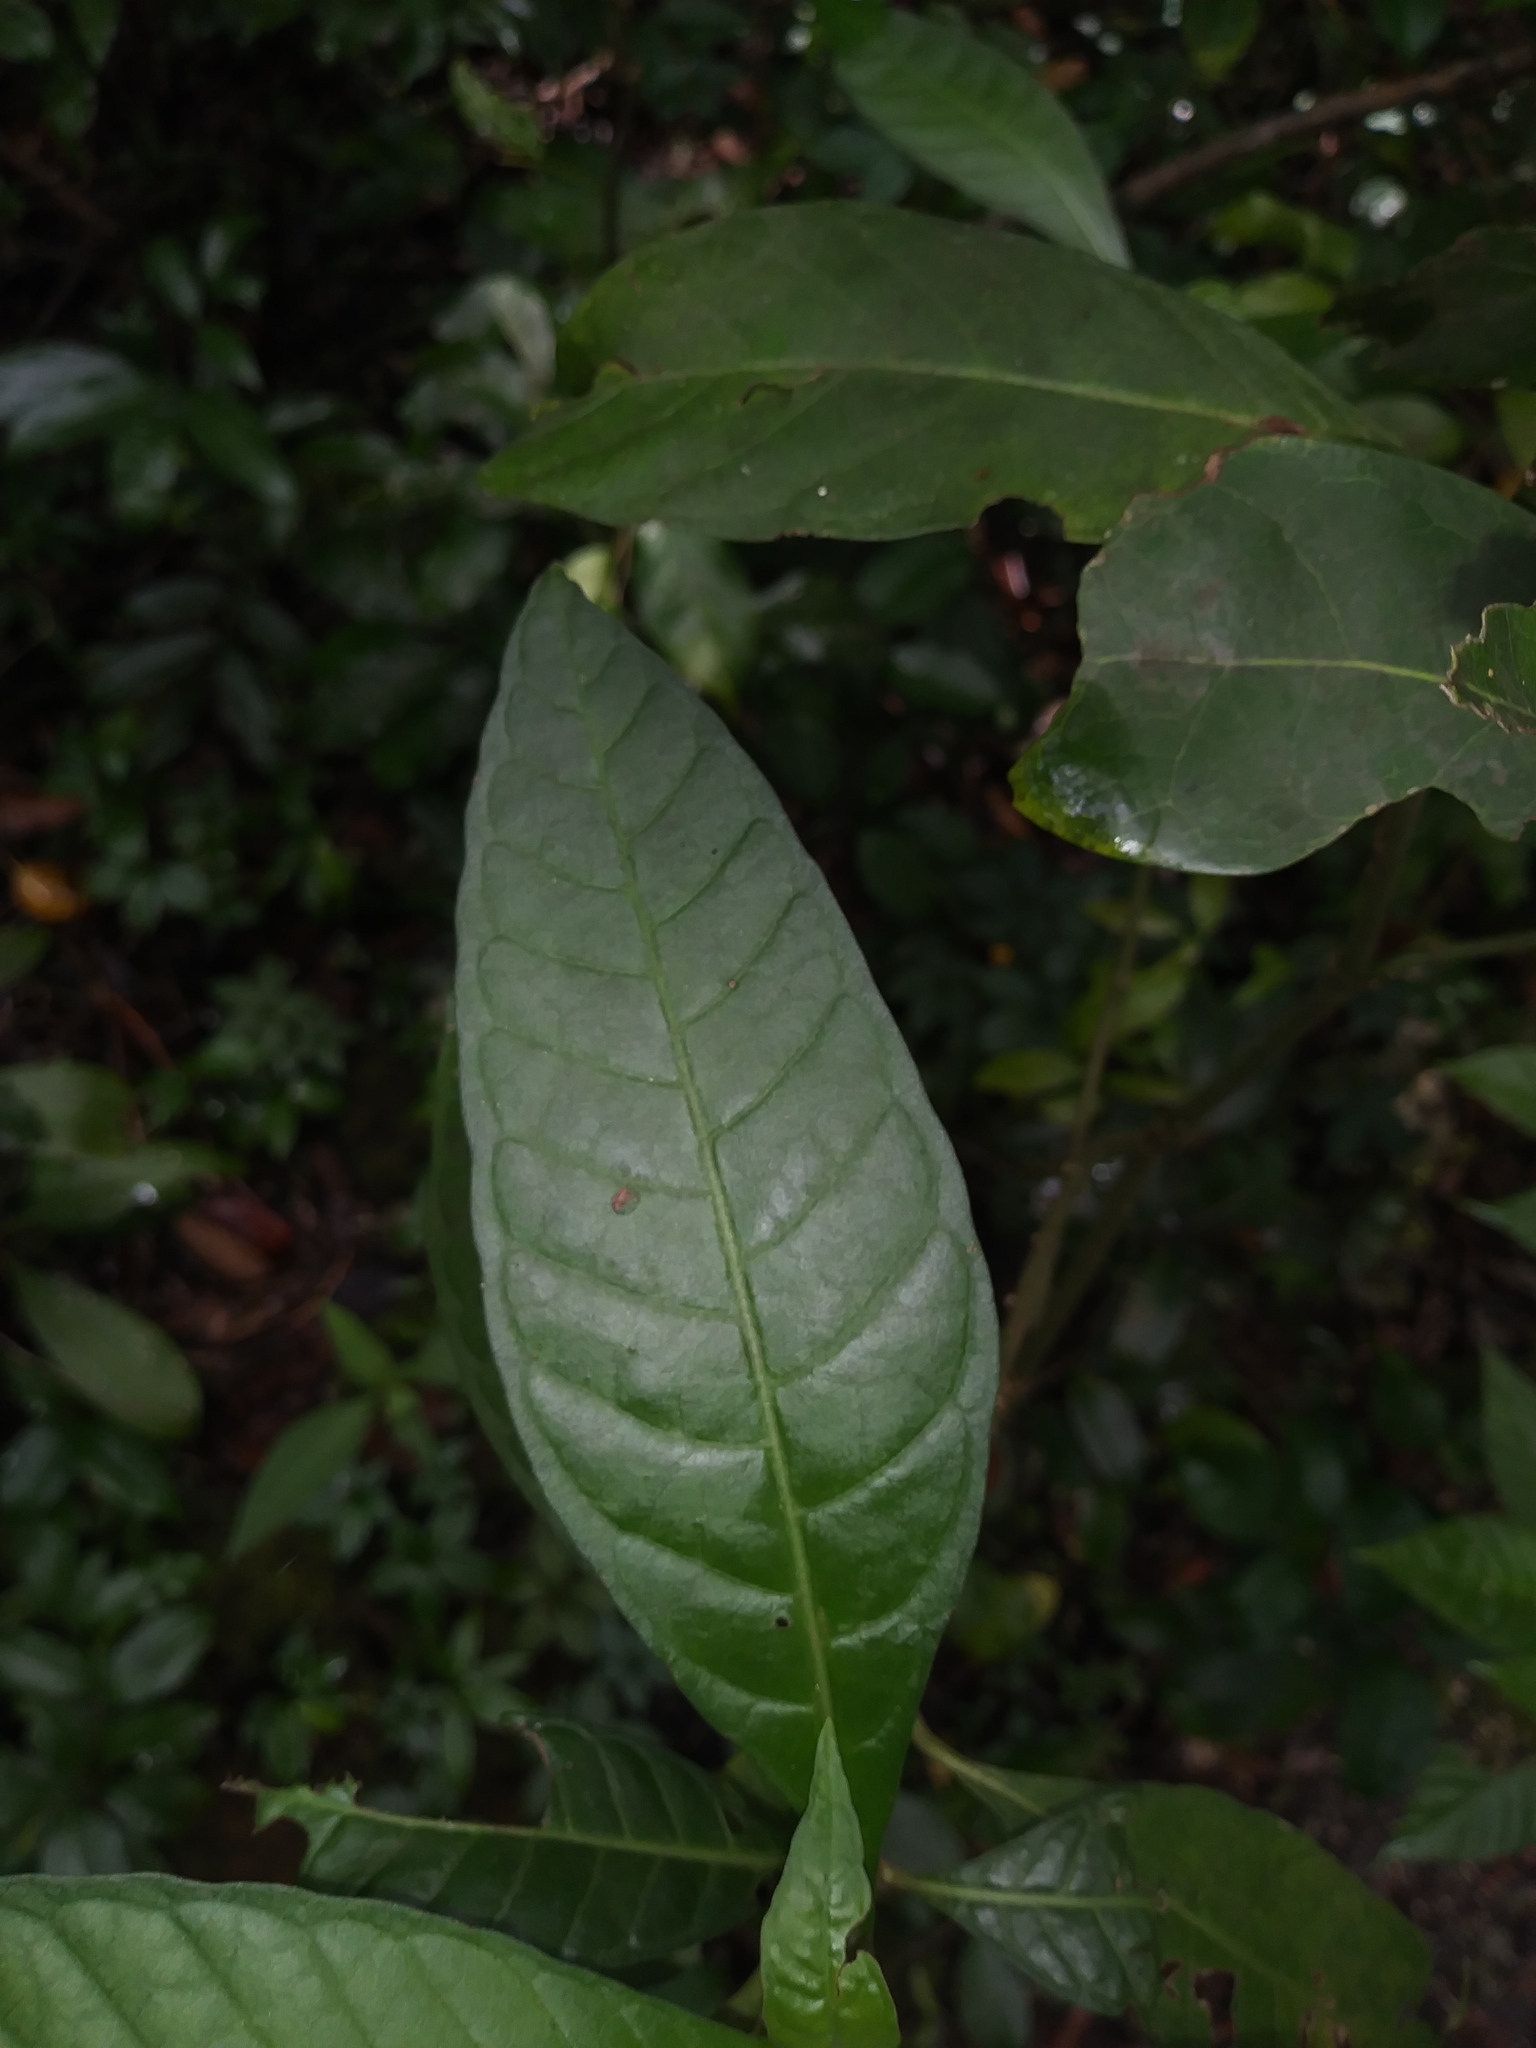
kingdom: Plantae
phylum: Tracheophyta
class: Magnoliopsida
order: Gentianales
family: Rubiaceae
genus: Psychotria
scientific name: Psychotria tenuifolia
